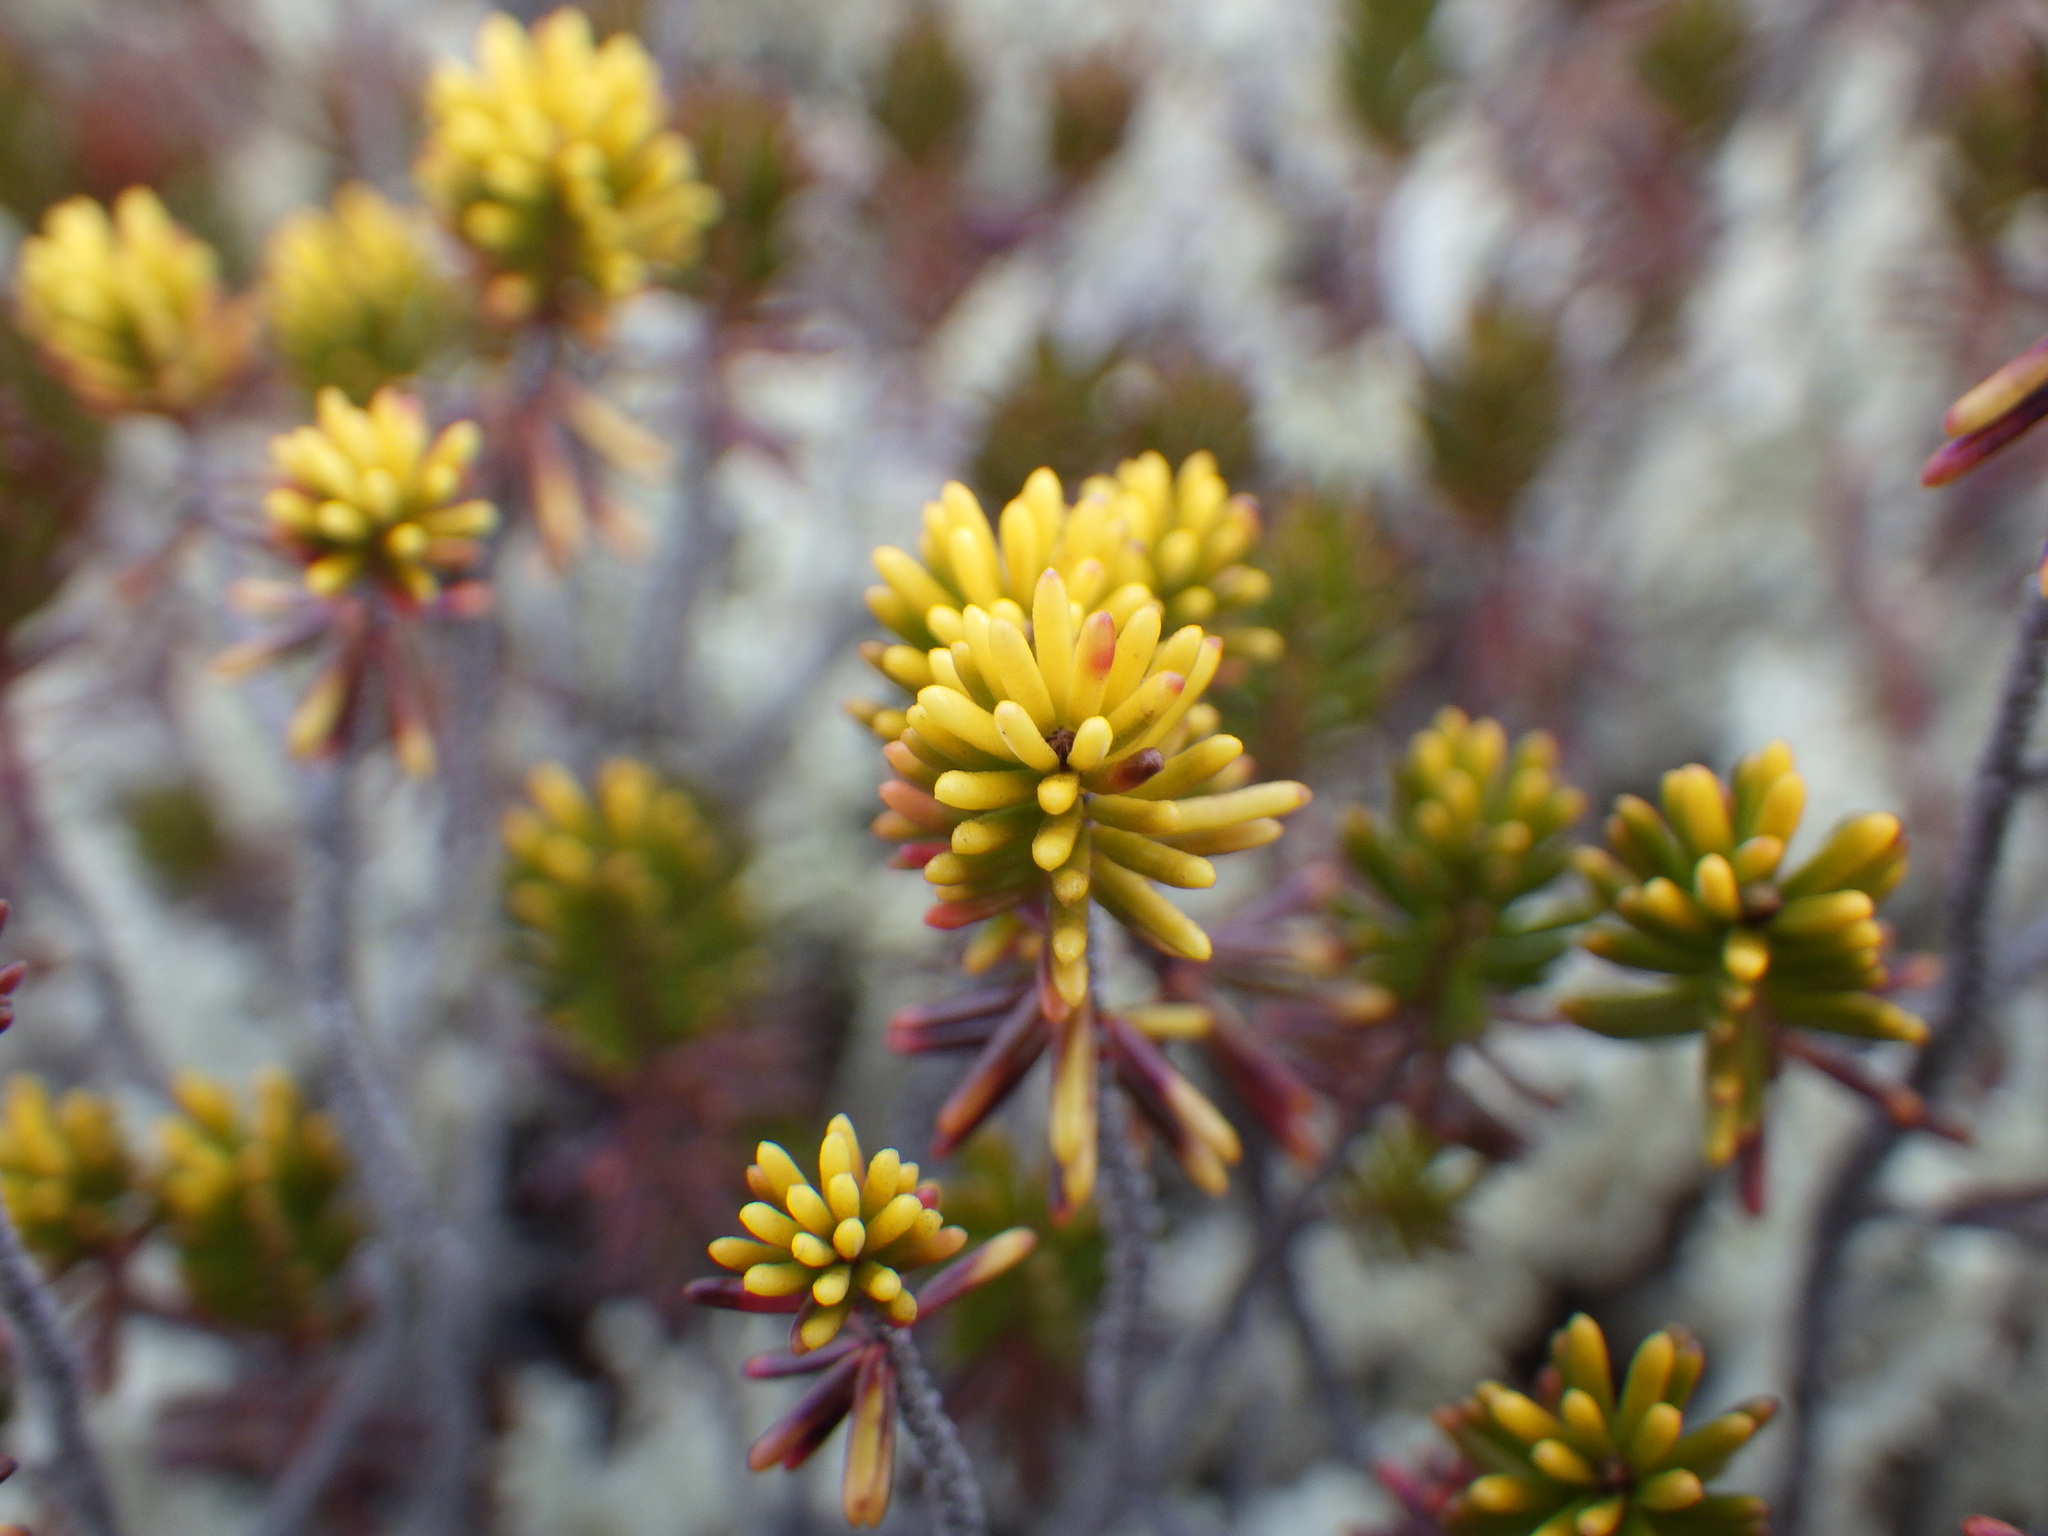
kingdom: Plantae
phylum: Tracheophyta
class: Magnoliopsida
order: Ericales
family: Ericaceae
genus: Corema
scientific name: Corema conradii
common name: Broom-crowberry
